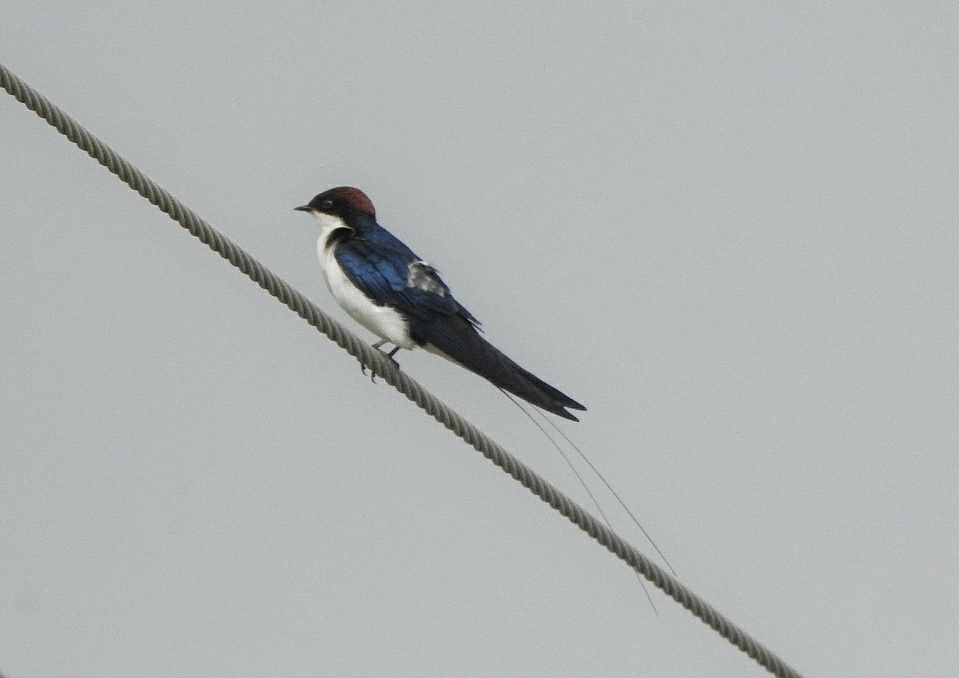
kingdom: Animalia
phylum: Chordata
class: Aves
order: Passeriformes
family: Hirundinidae
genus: Hirundo
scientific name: Hirundo smithii
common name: Wire-tailed swallow
